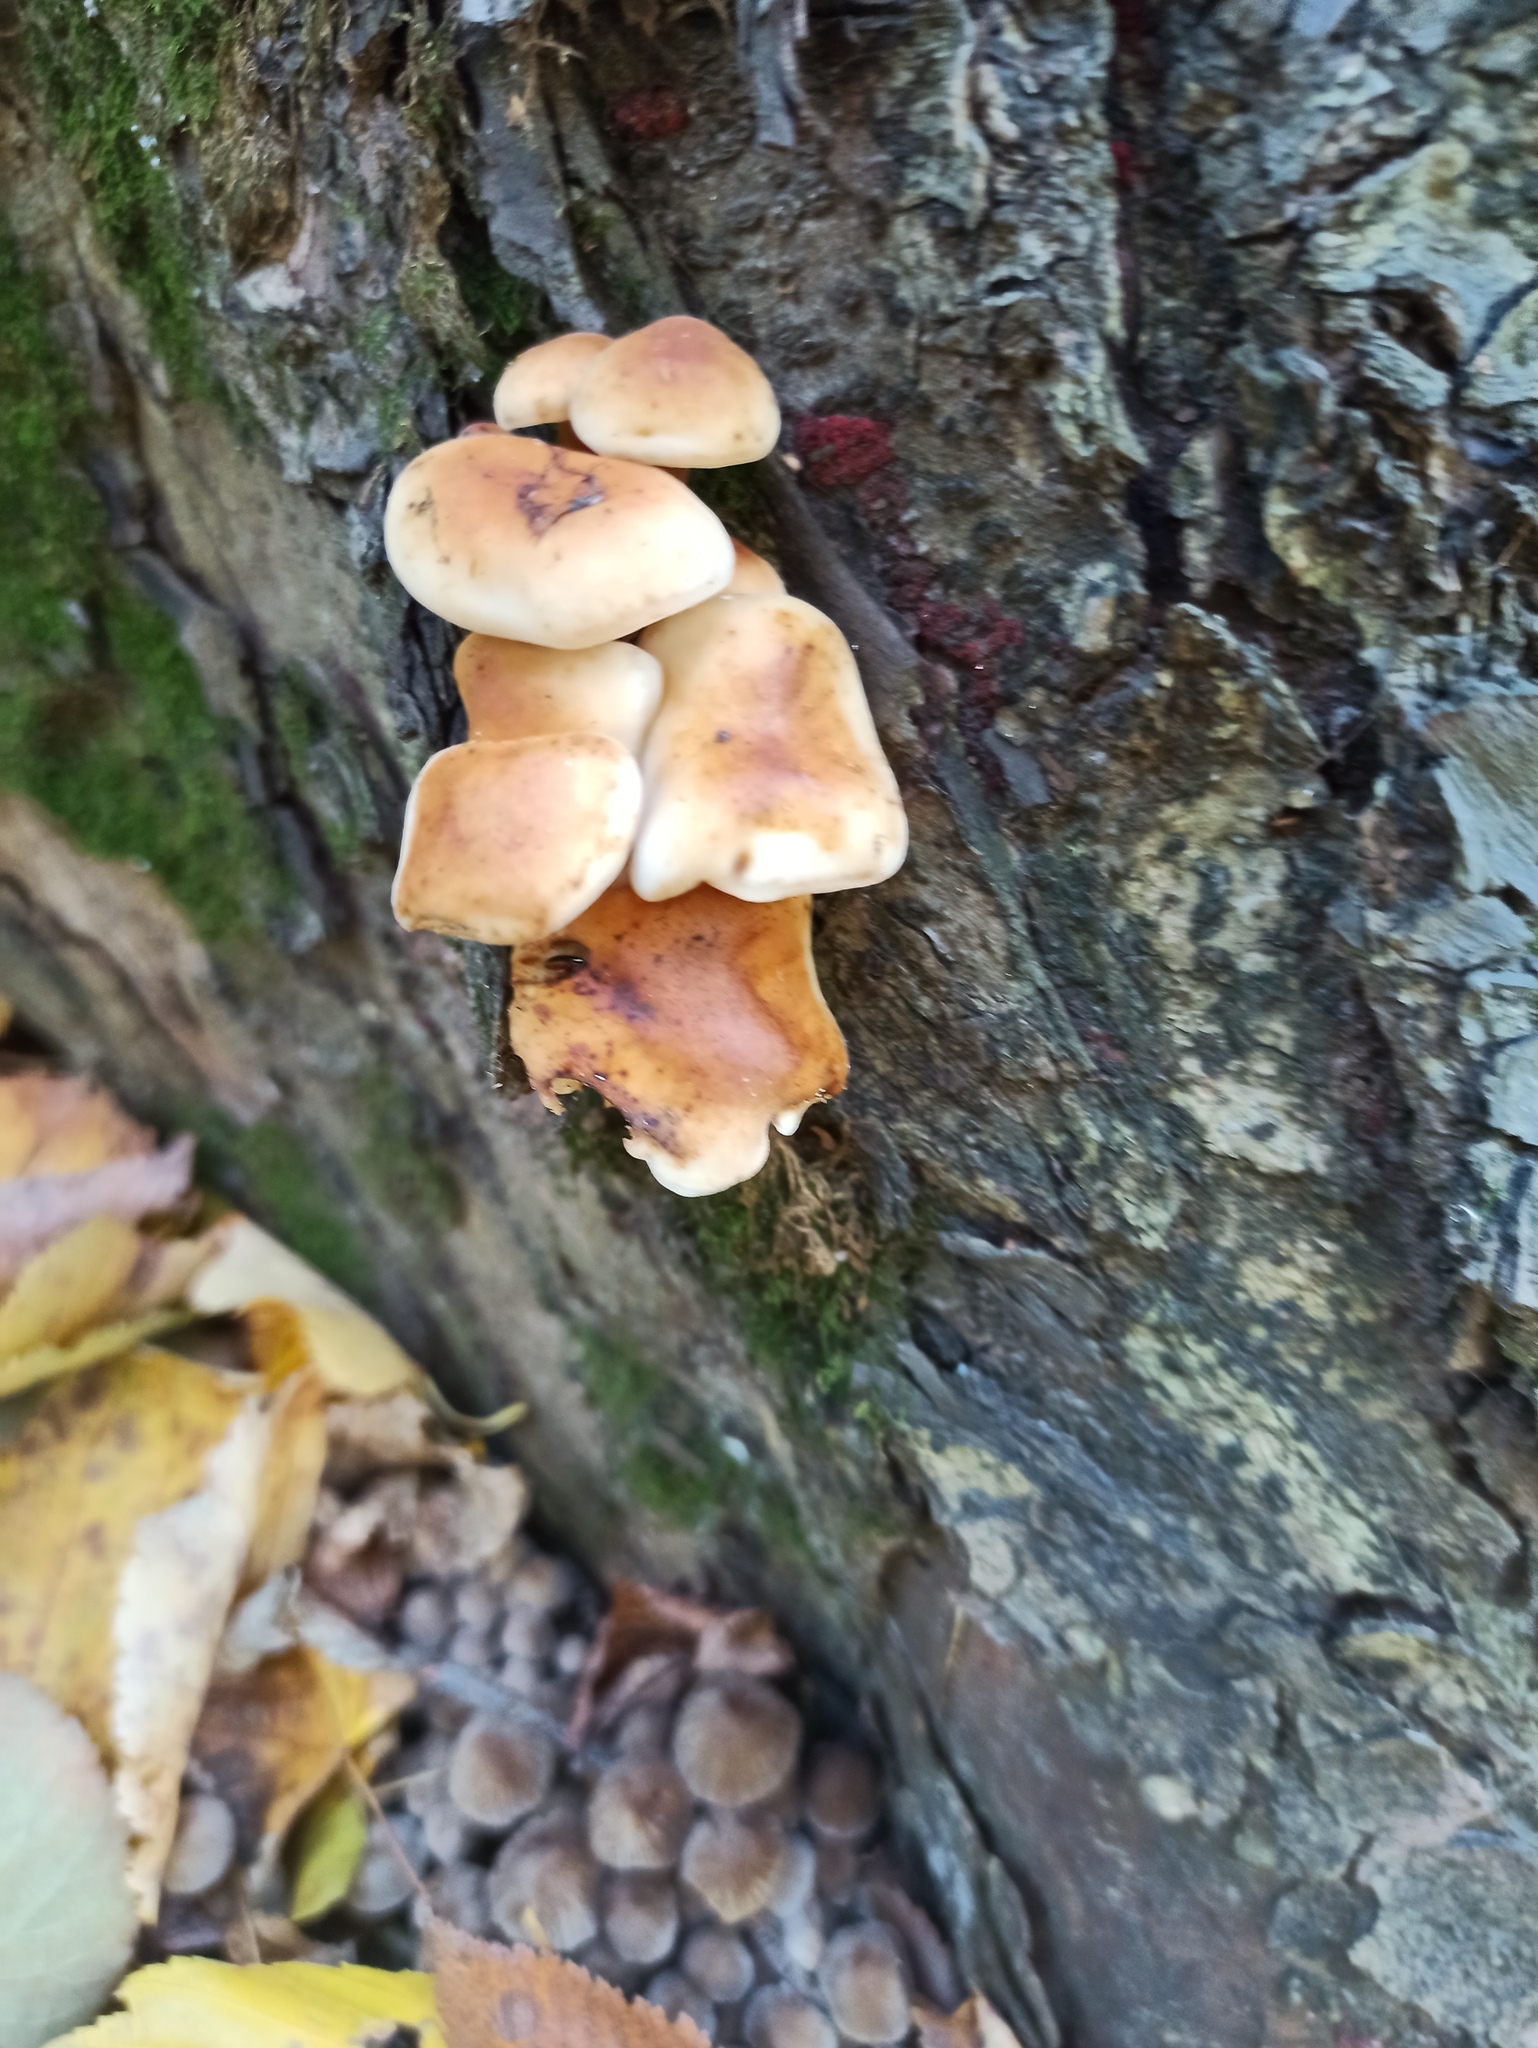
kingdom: Fungi
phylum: Basidiomycota
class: Agaricomycetes
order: Agaricales
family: Physalacriaceae
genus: Flammulina
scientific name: Flammulina
